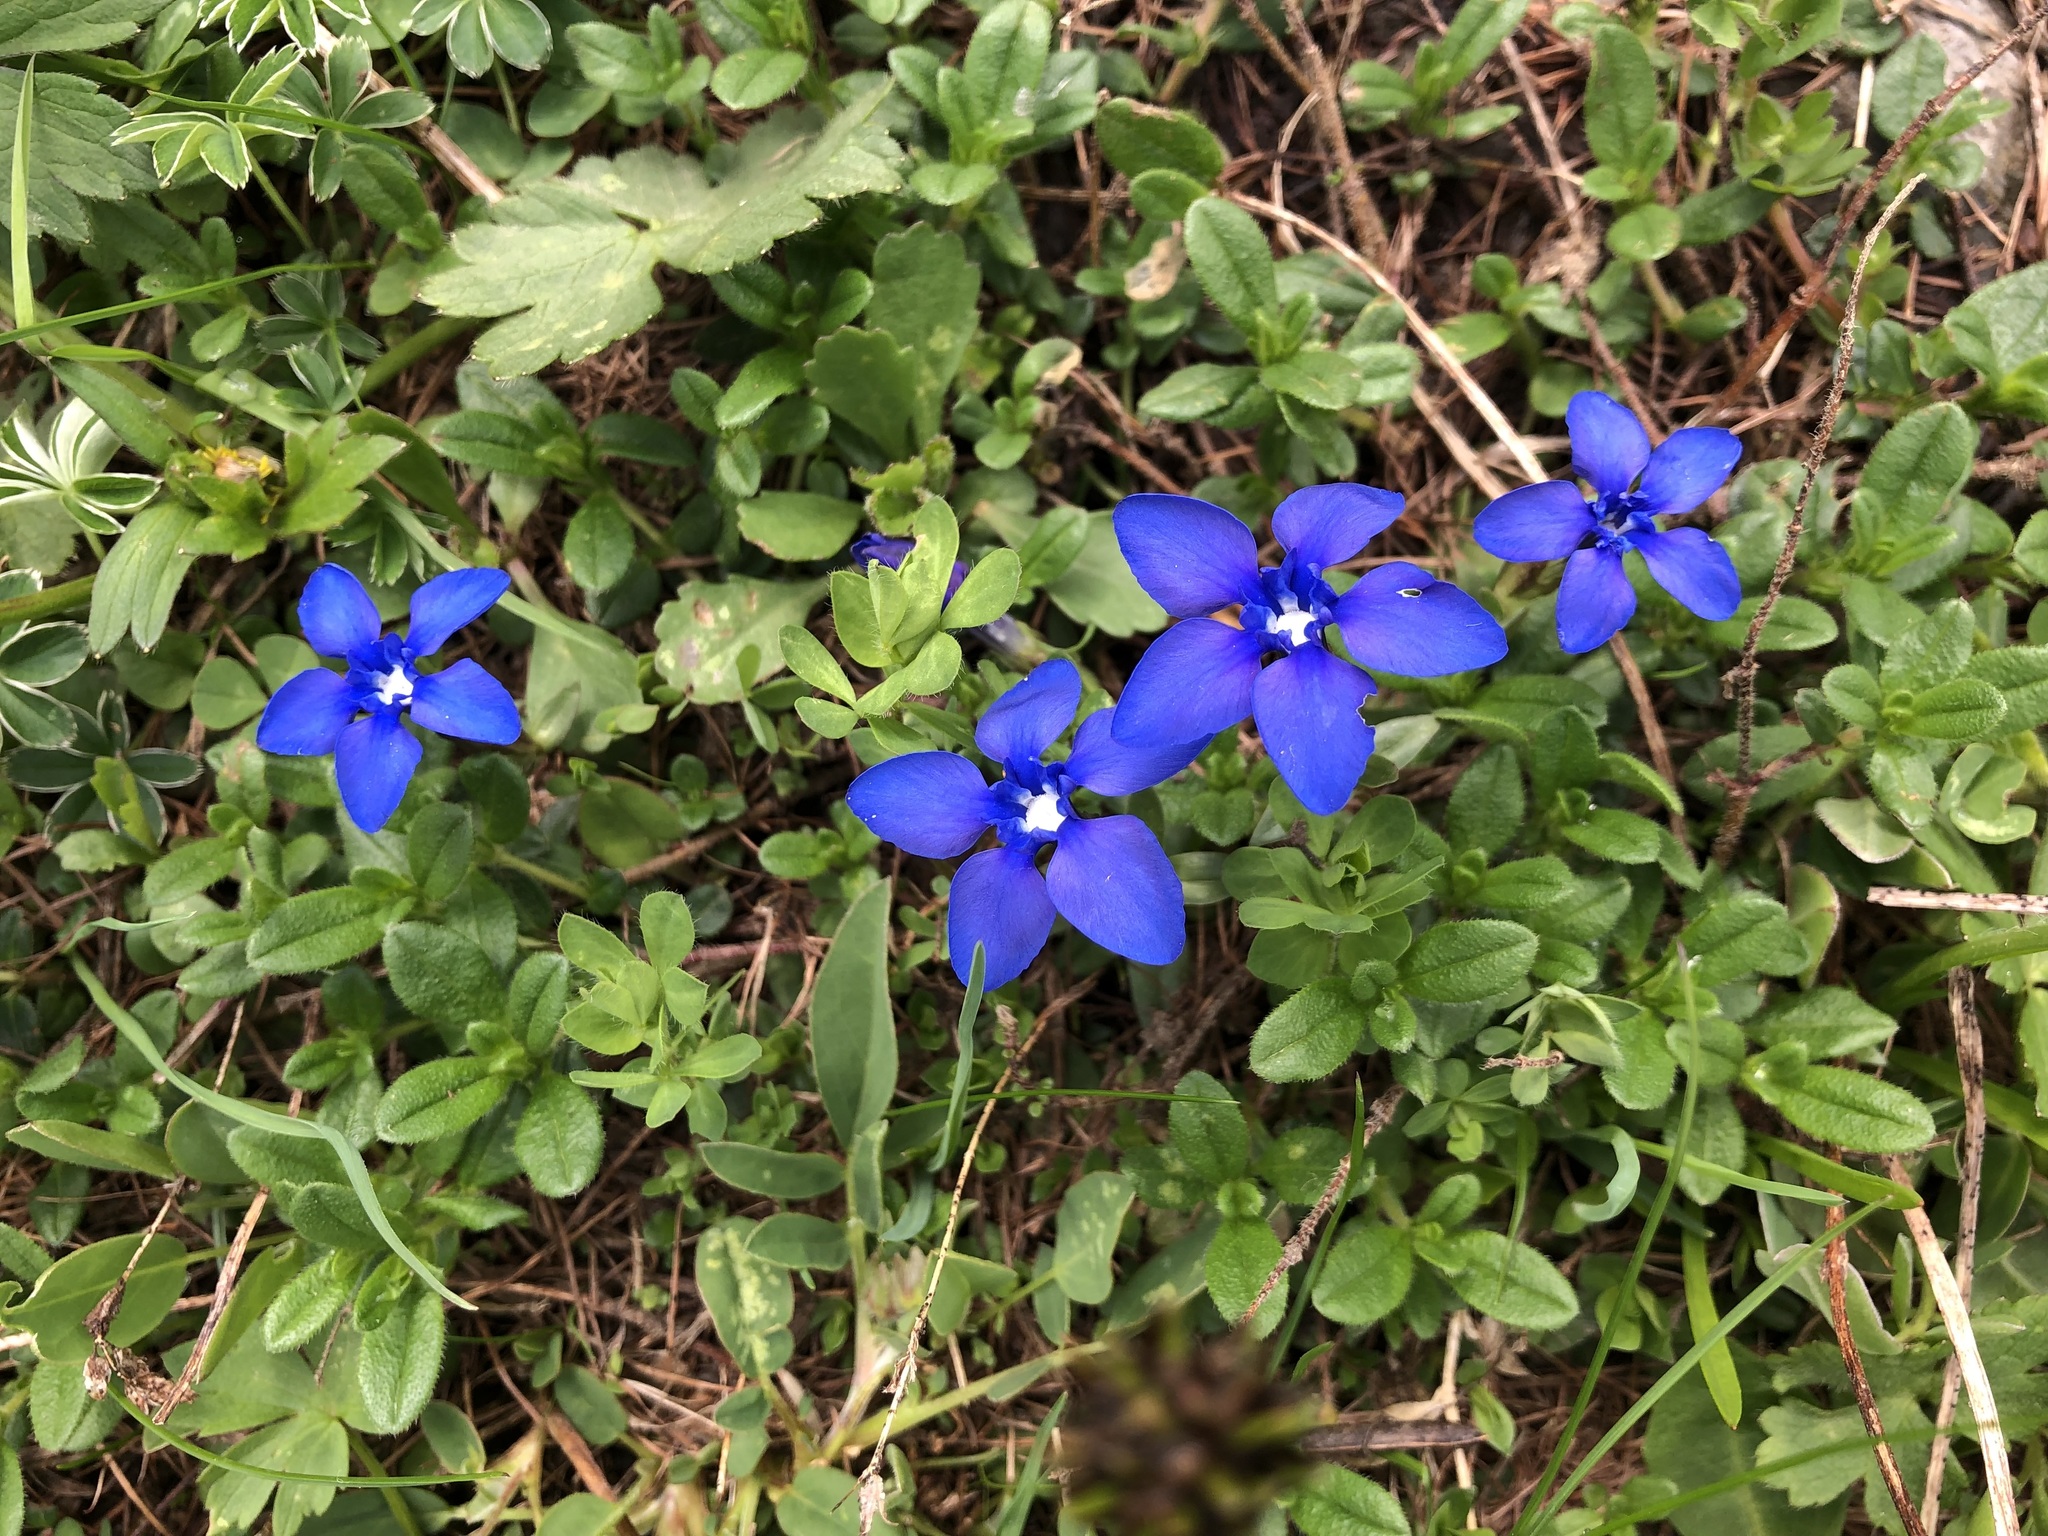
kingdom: Plantae
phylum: Tracheophyta
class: Magnoliopsida
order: Gentianales
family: Gentianaceae
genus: Gentiana
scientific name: Gentiana verna
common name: Spring gentian
